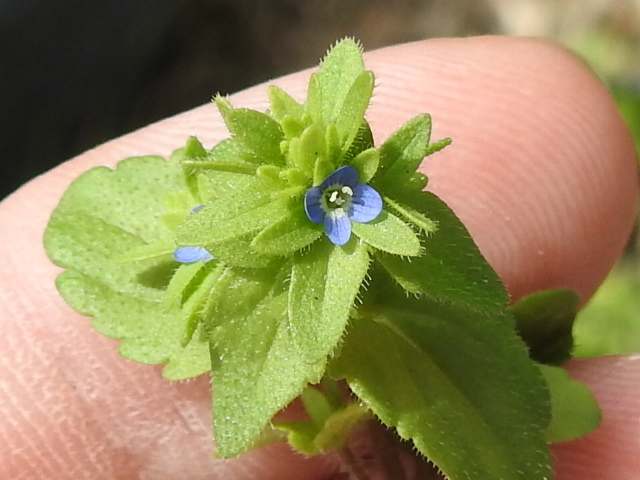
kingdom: Plantae
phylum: Tracheophyta
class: Magnoliopsida
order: Lamiales
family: Plantaginaceae
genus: Veronica
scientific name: Veronica arvensis
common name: Corn speedwell
